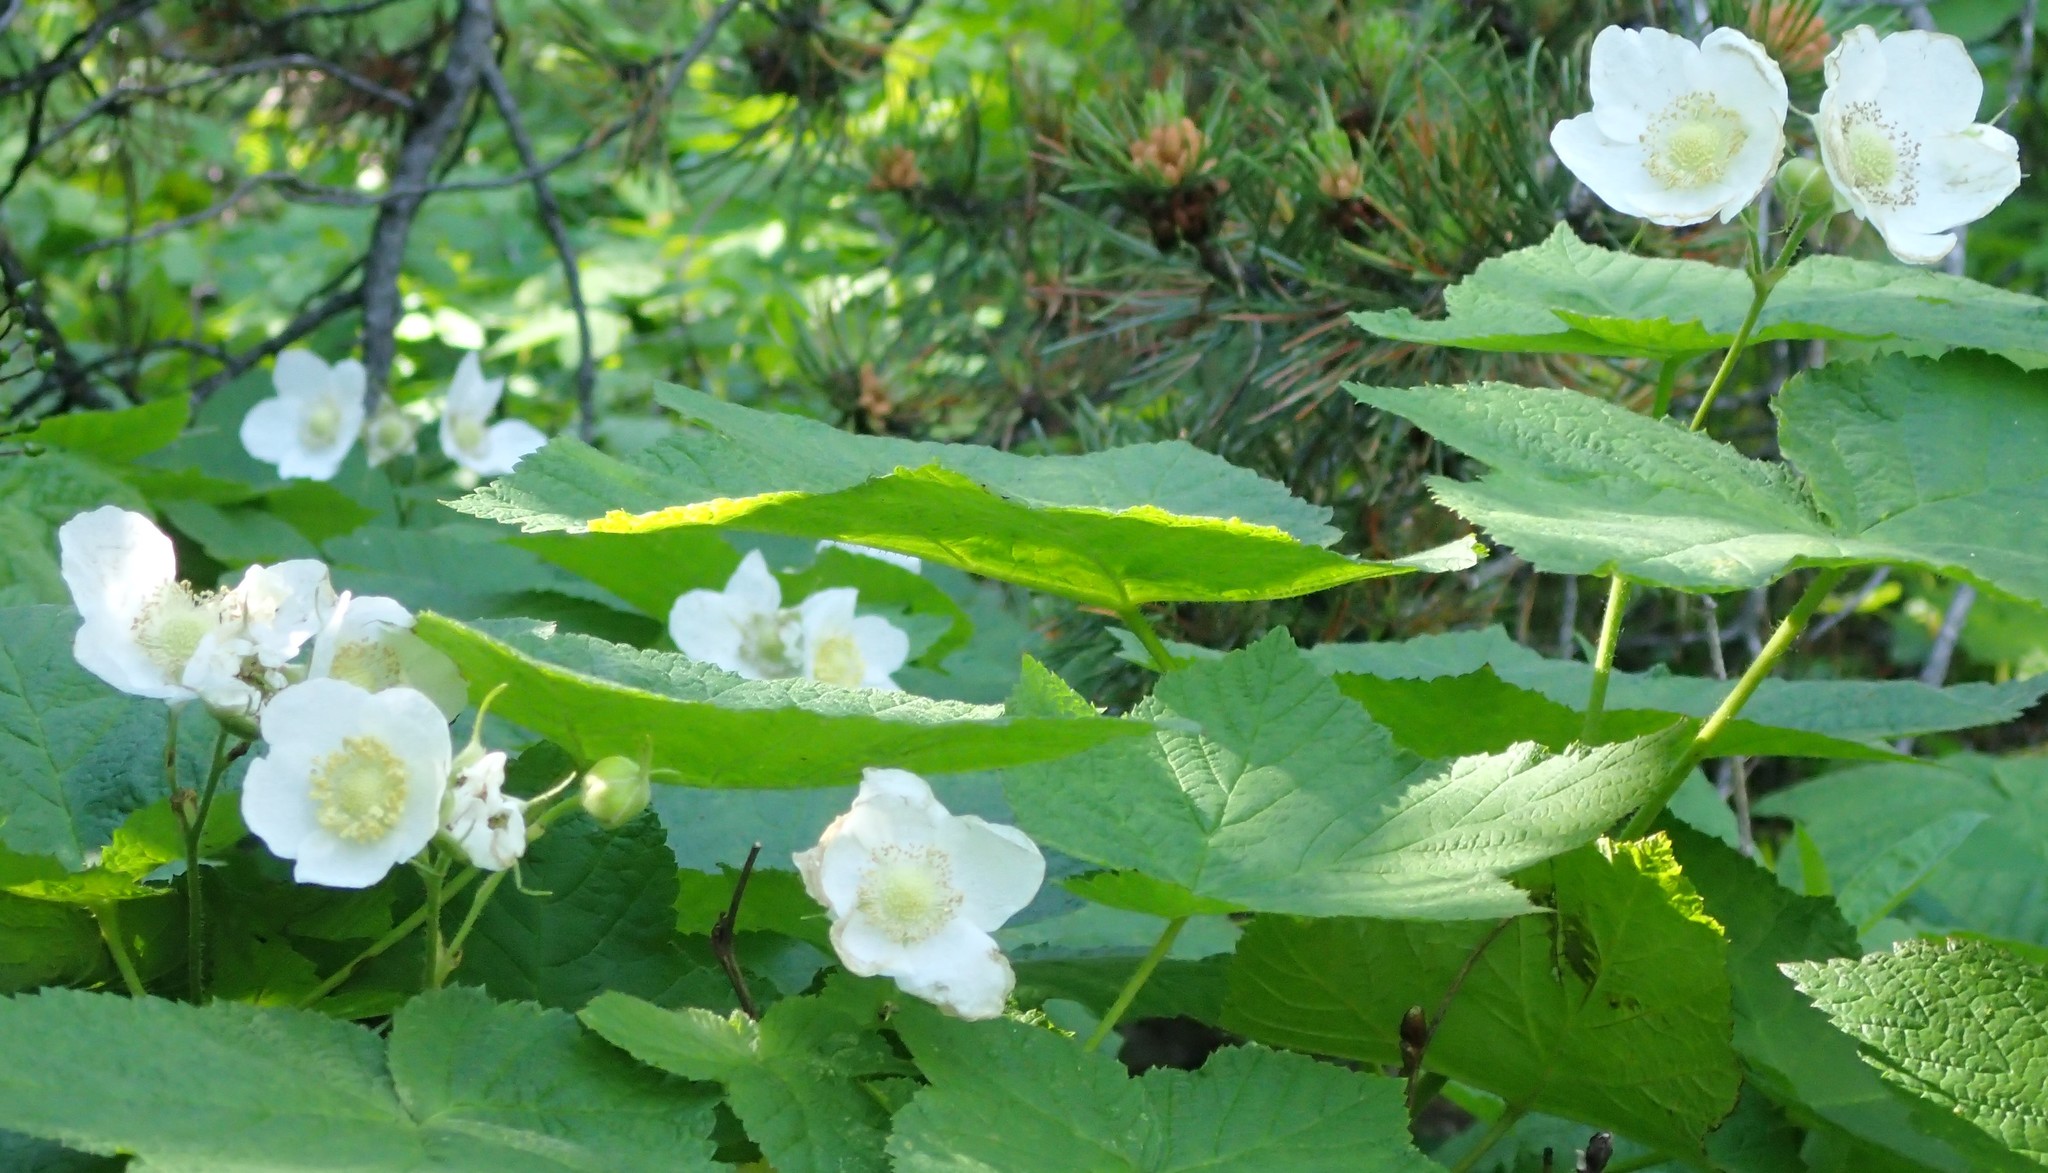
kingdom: Plantae
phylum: Tracheophyta
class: Magnoliopsida
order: Rosales
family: Rosaceae
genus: Rubus
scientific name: Rubus parviflorus
